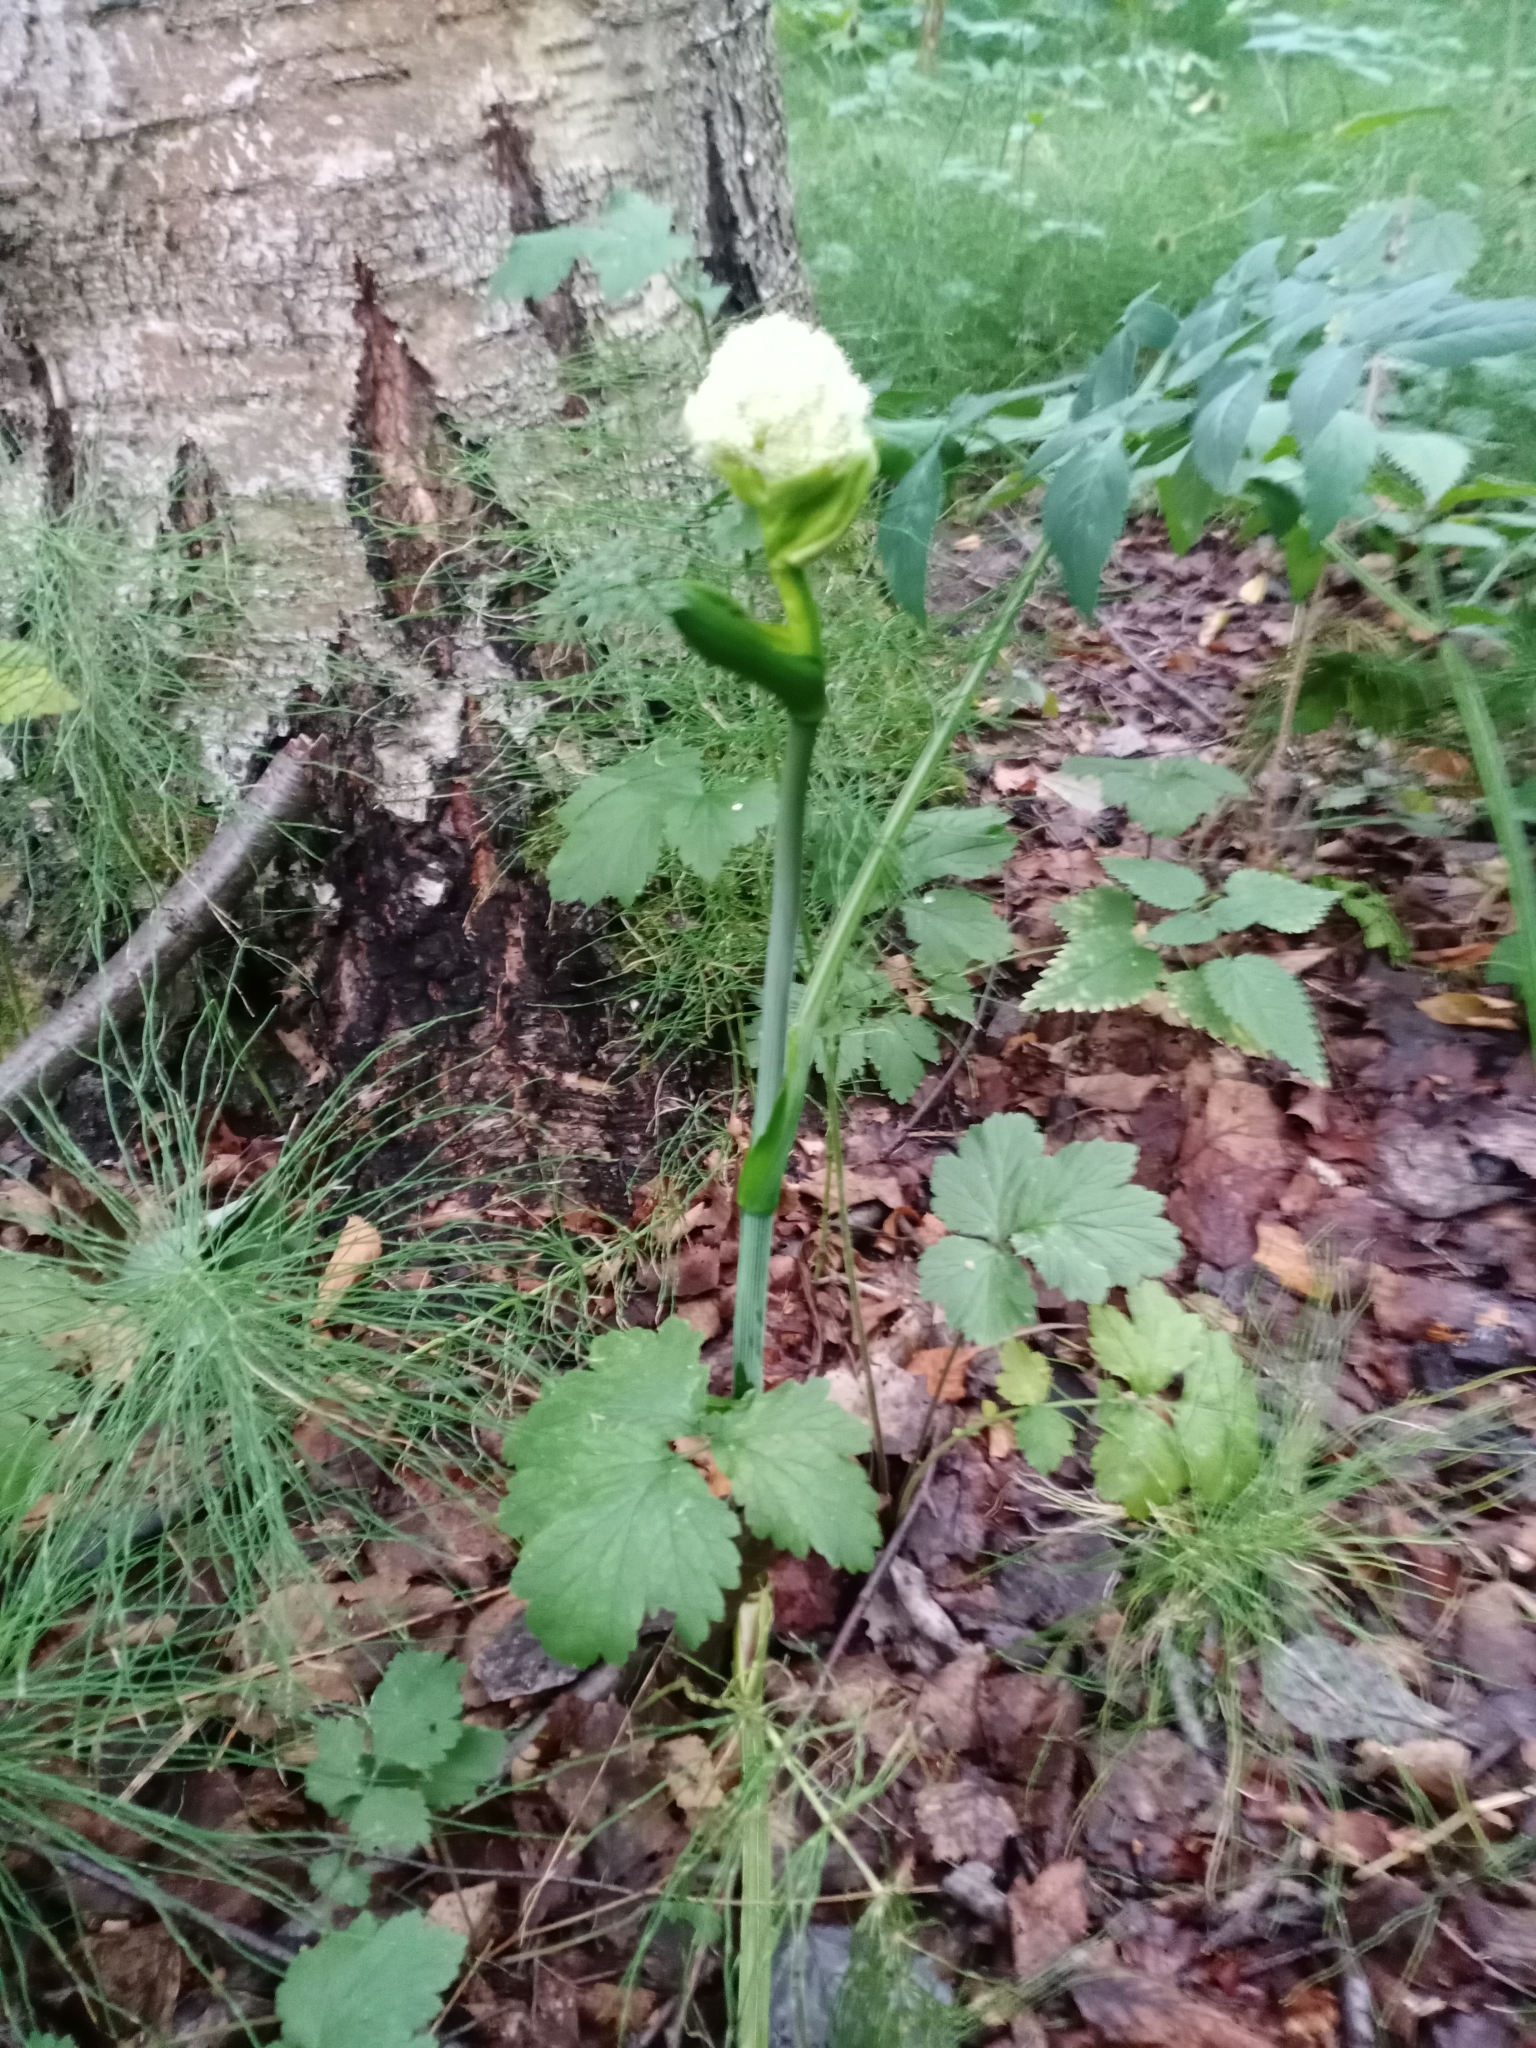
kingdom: Plantae
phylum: Tracheophyta
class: Magnoliopsida
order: Apiales
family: Apiaceae
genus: Angelica
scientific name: Angelica sylvestris
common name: Wild angelica
